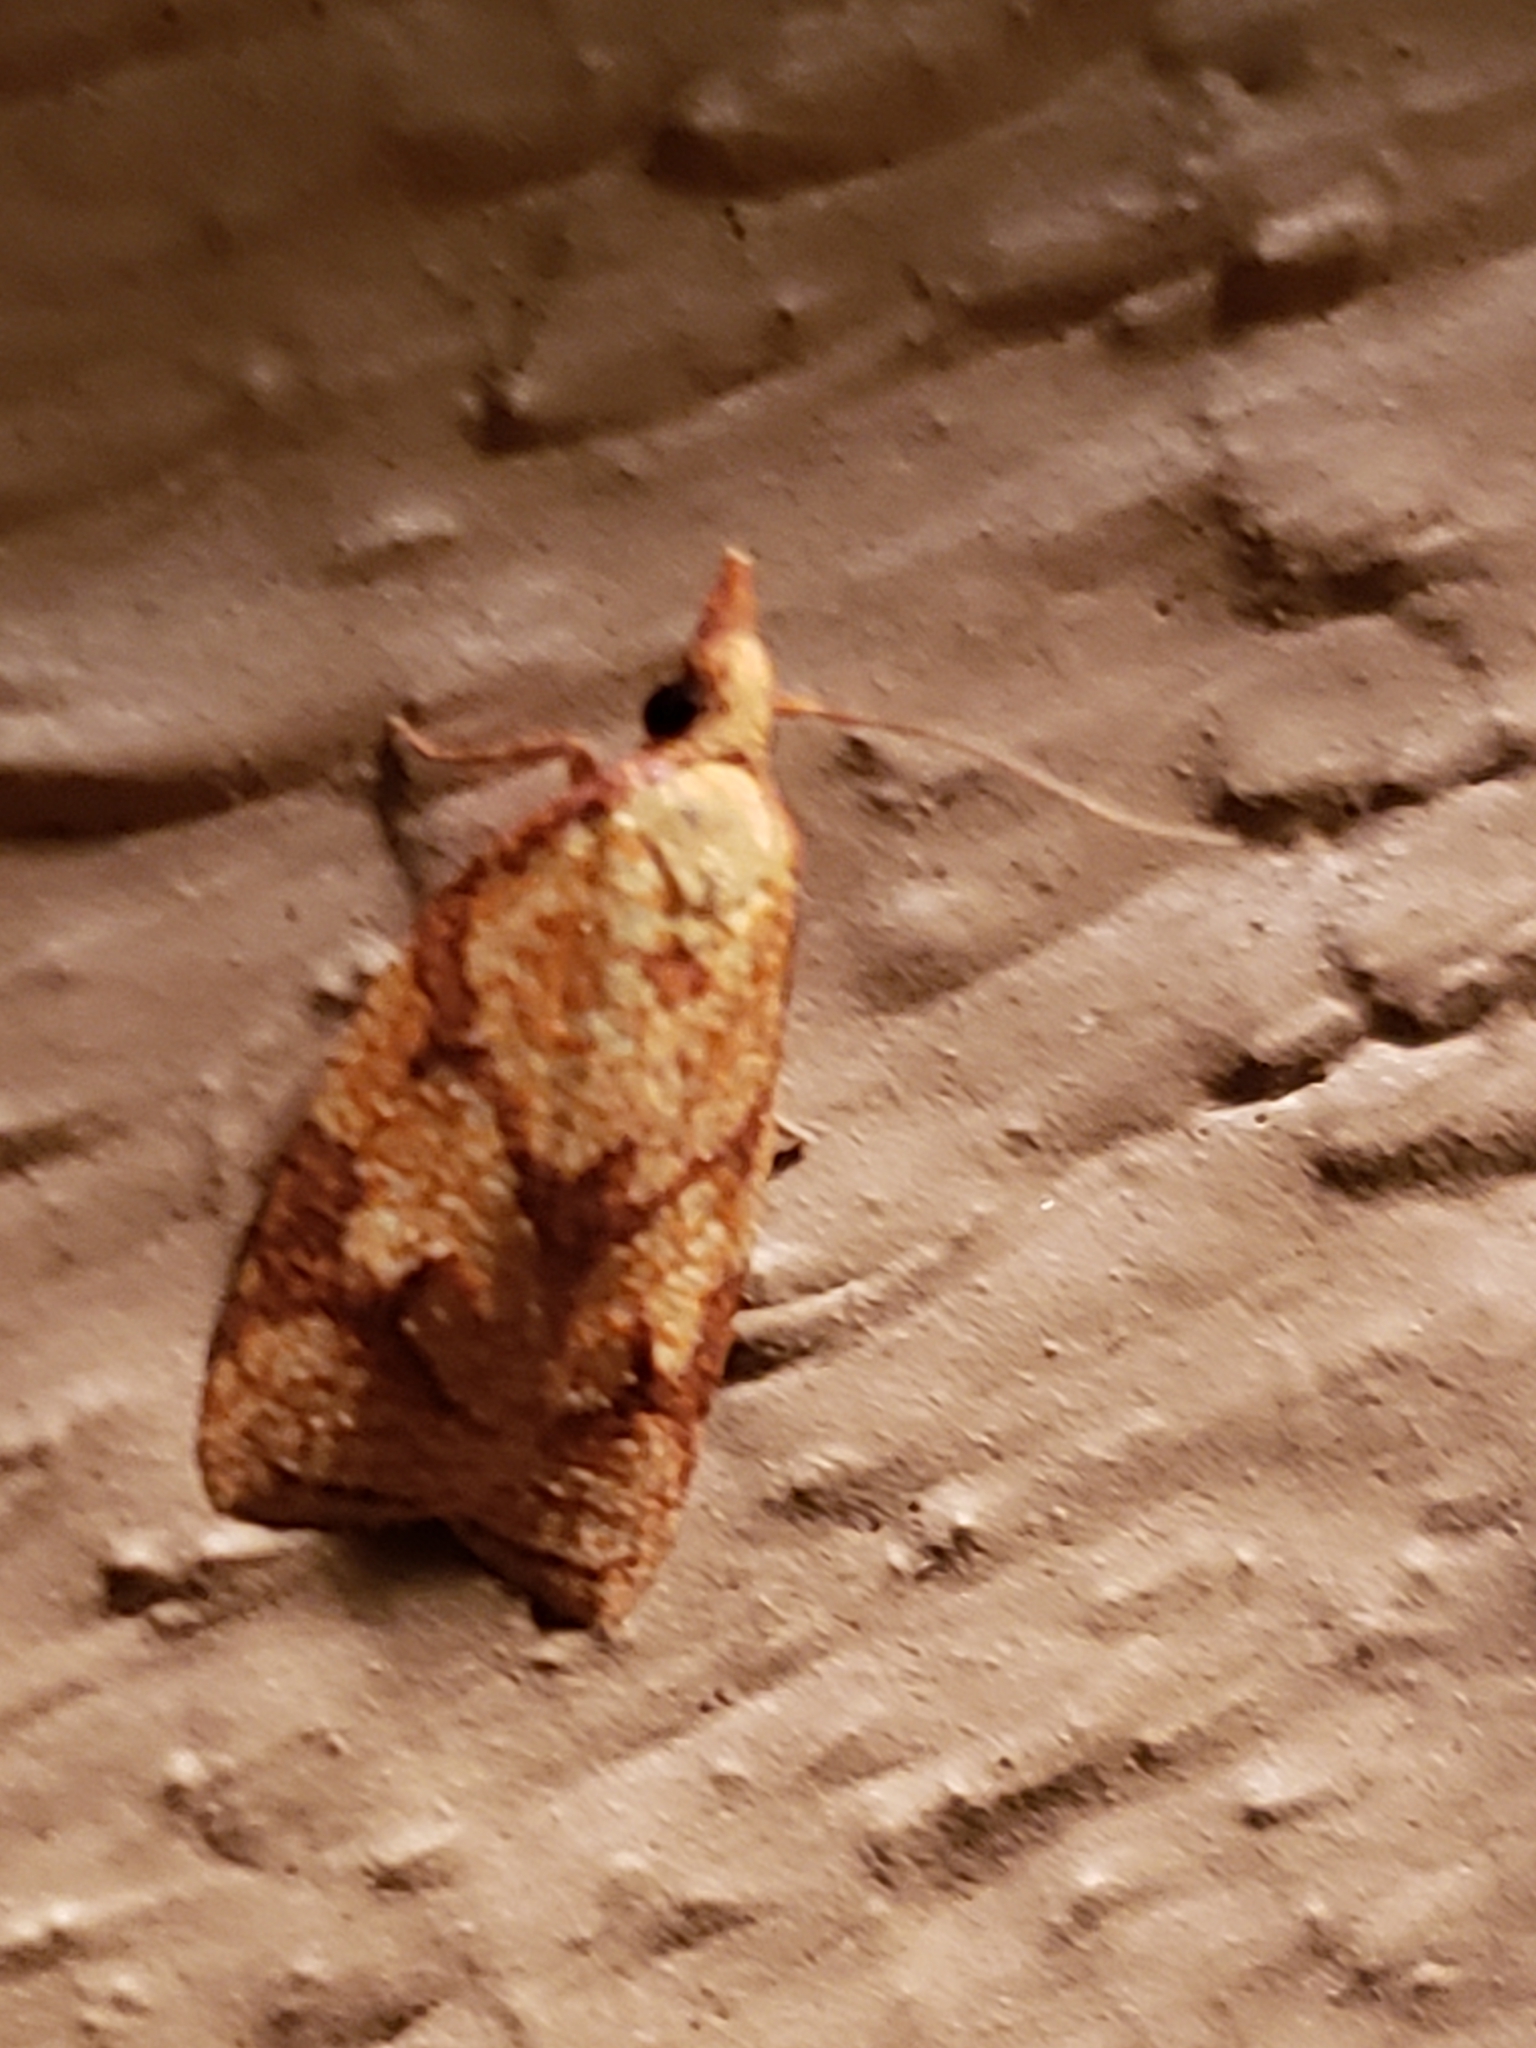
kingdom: Animalia
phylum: Arthropoda
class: Insecta
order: Lepidoptera
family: Tortricidae
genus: Cenopis
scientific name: Cenopis reticulatana
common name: Reticulated fruitworm moth
